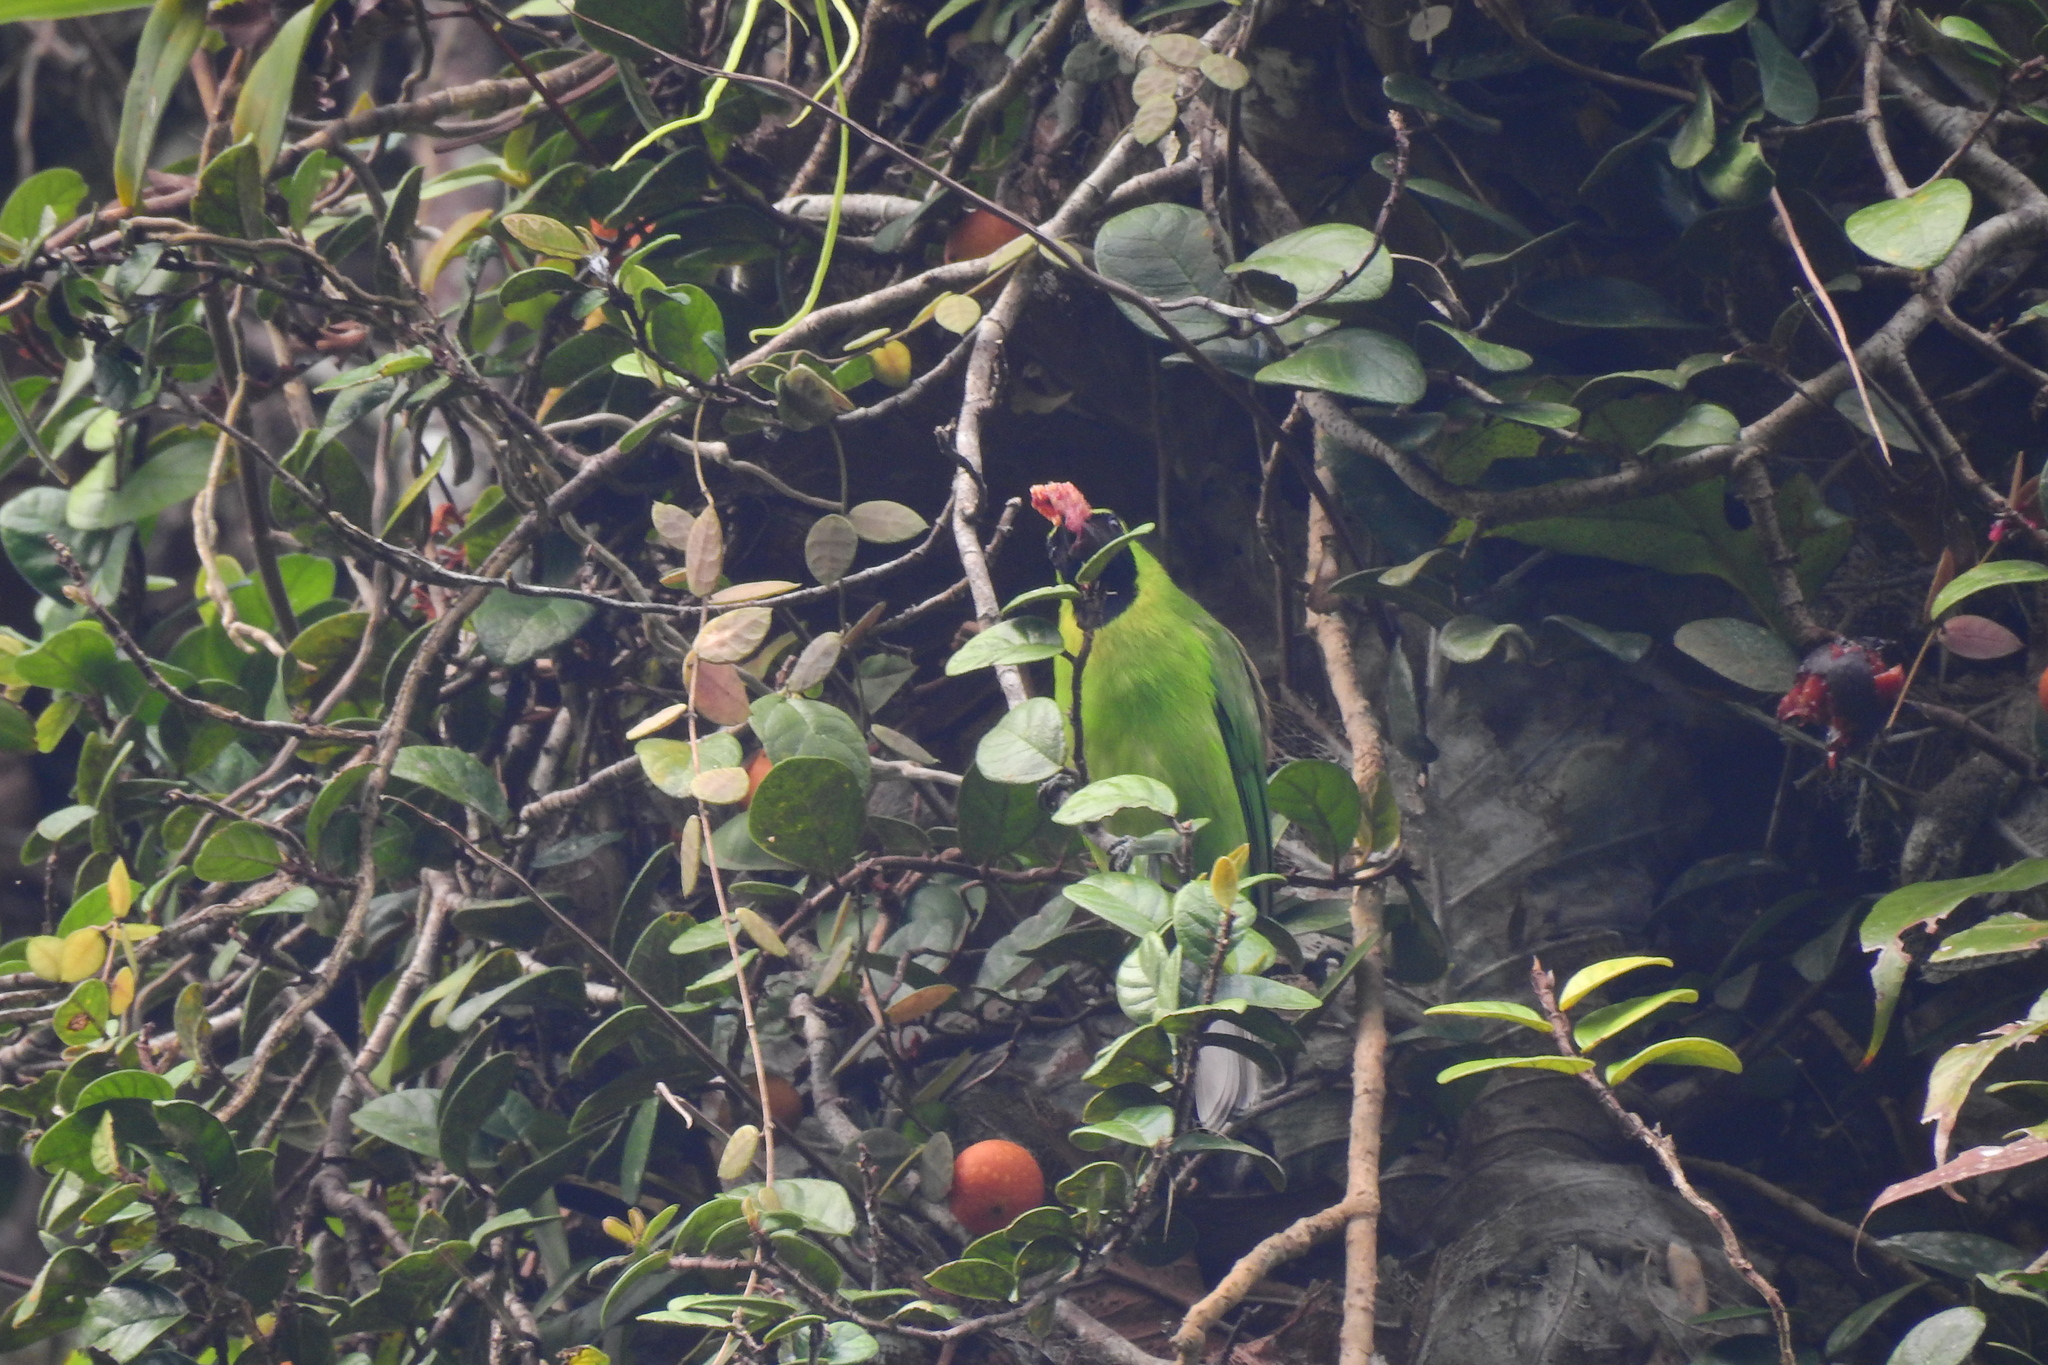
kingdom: Animalia
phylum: Chordata
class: Aves
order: Passeriformes
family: Chloropseidae
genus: Chloropsis
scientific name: Chloropsis sonnerati
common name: Greater green leafbird
